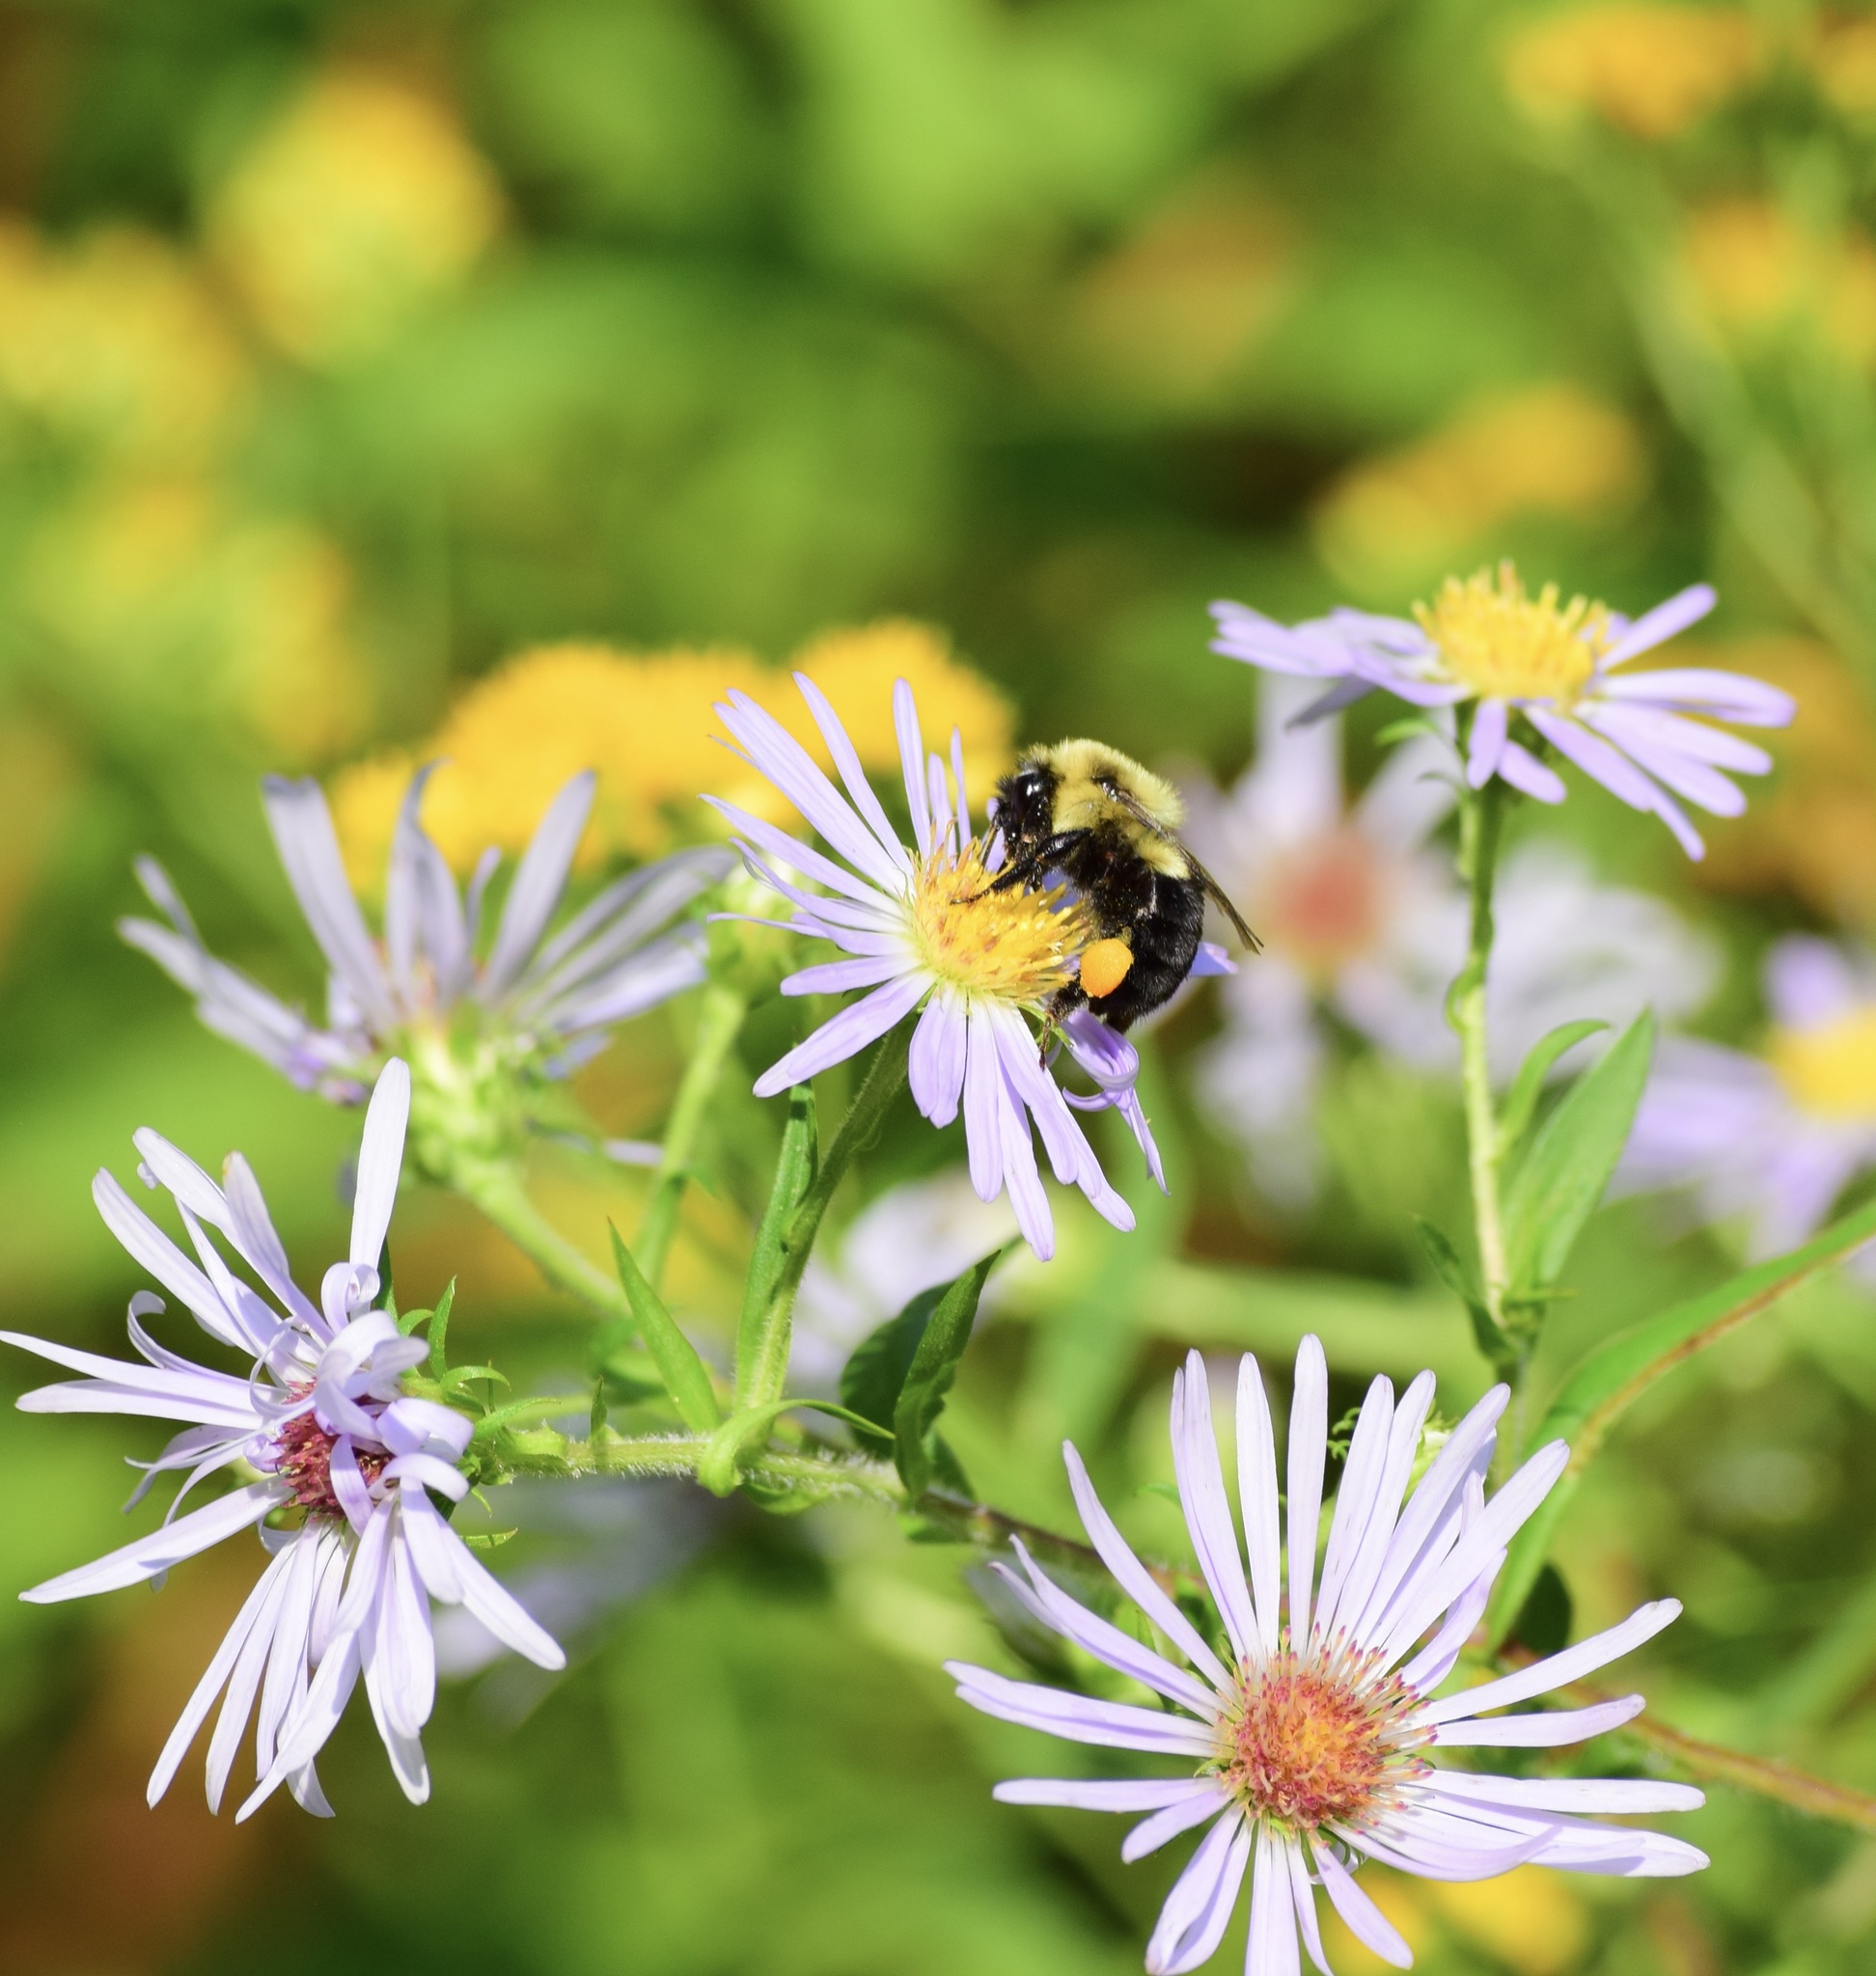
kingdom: Animalia
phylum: Arthropoda
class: Insecta
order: Hymenoptera
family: Apidae
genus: Bombus
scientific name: Bombus impatiens
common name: Common eastern bumble bee
